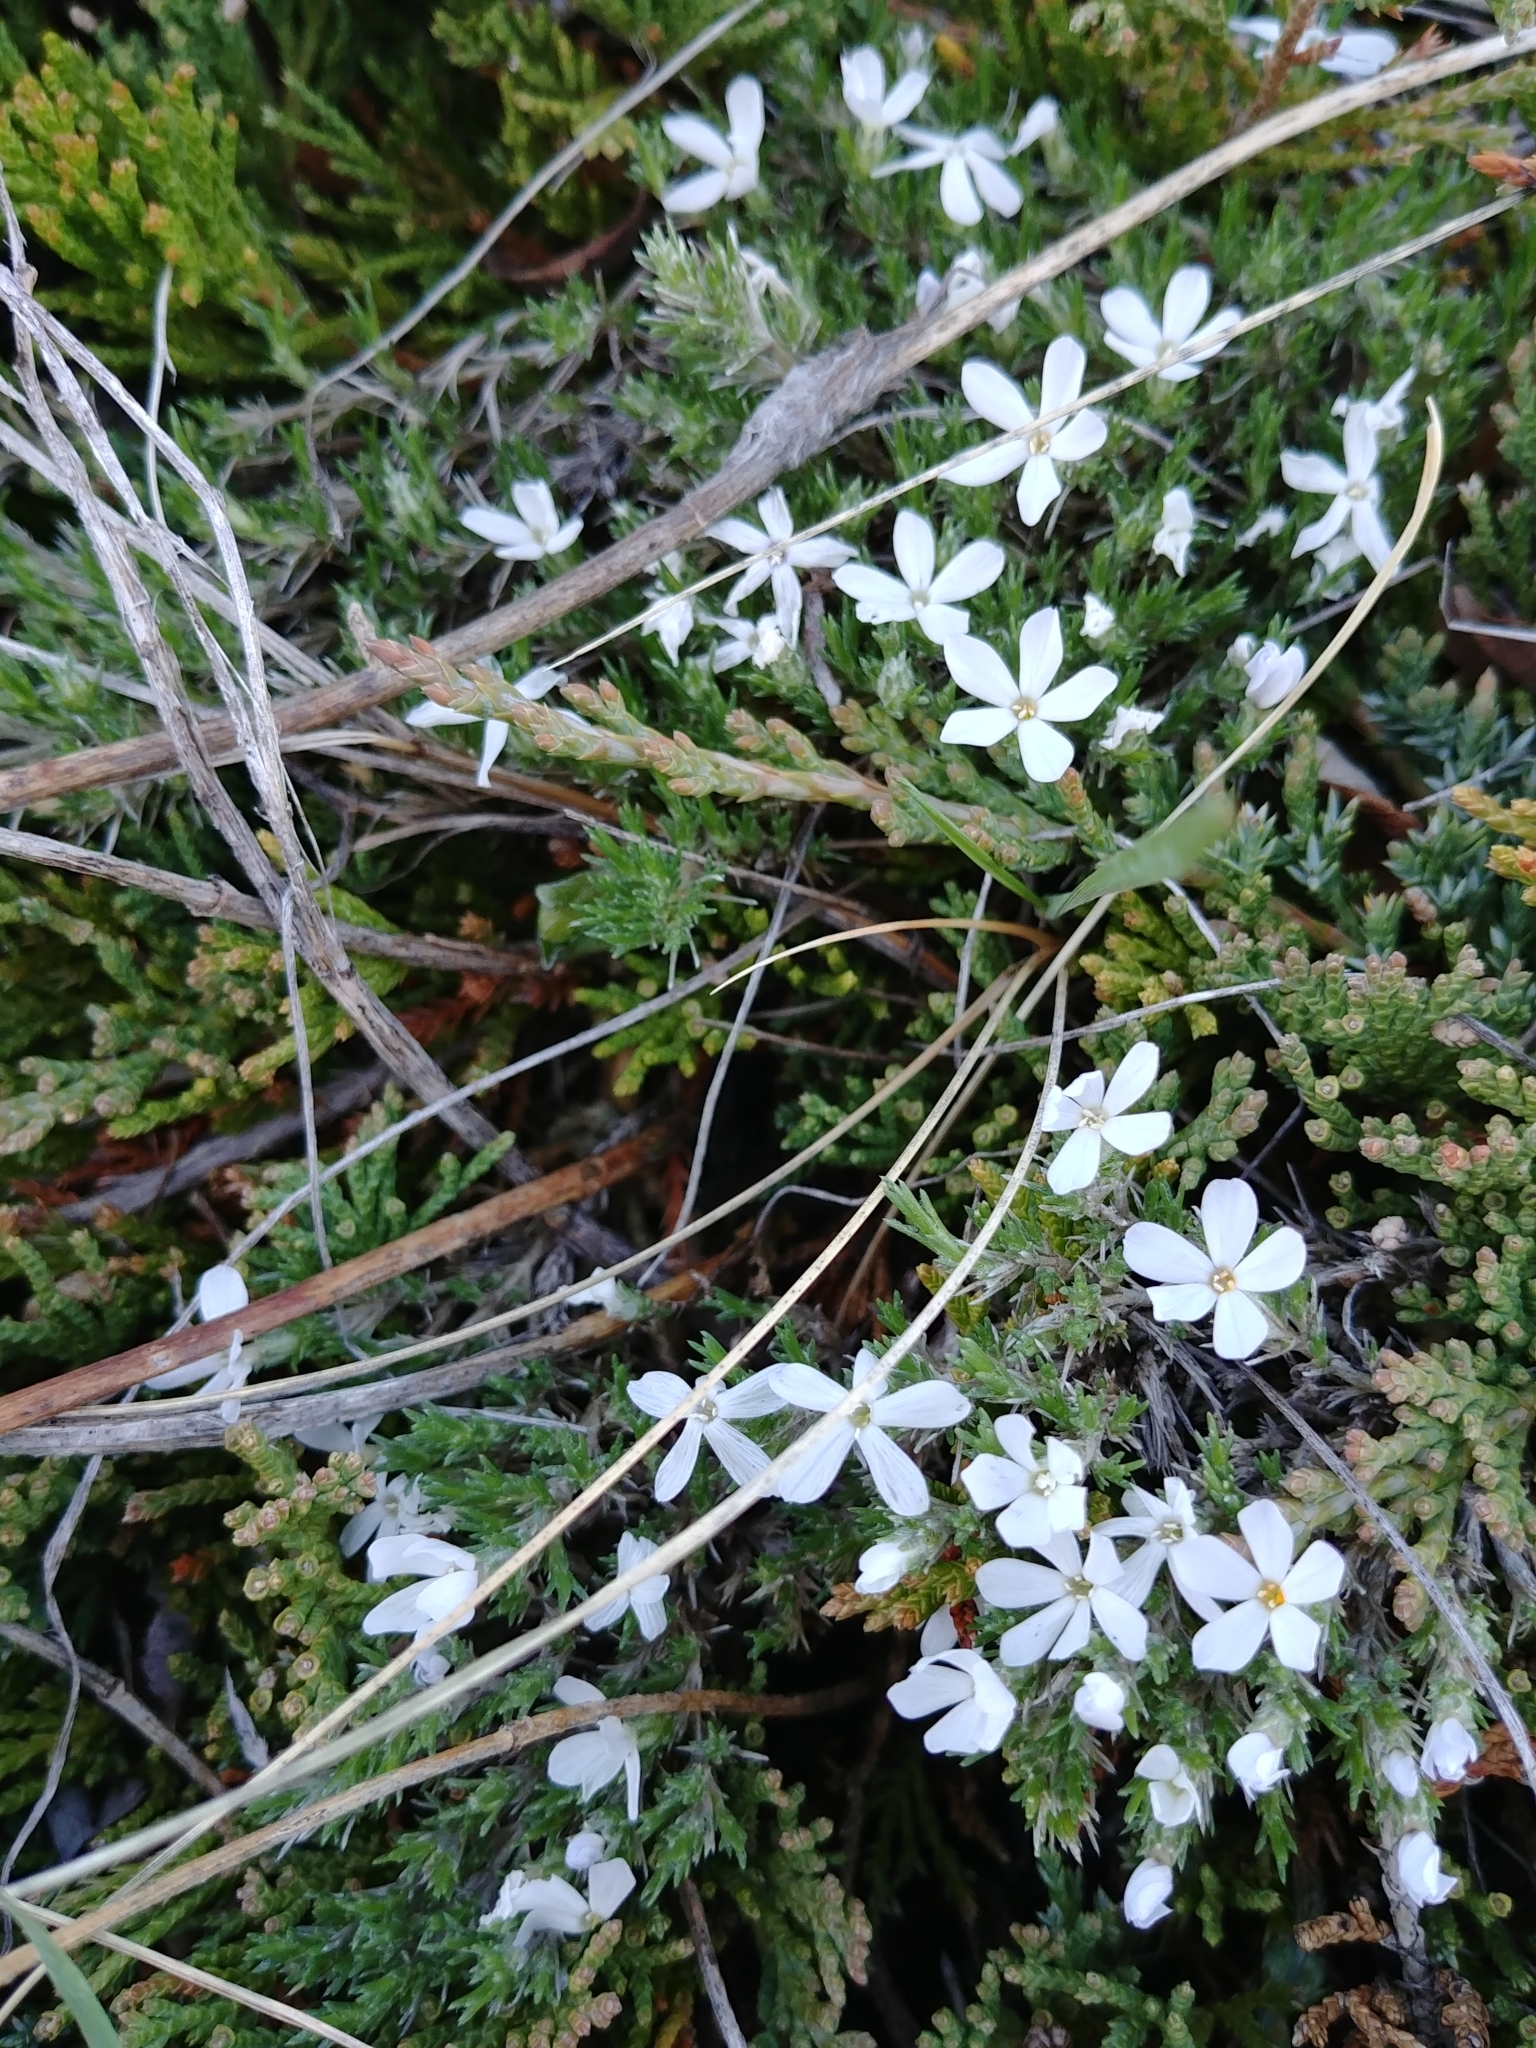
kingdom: Plantae
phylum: Tracheophyta
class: Magnoliopsida
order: Ericales
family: Polemoniaceae
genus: Phlox
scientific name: Phlox hoodii
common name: Moss phlox
